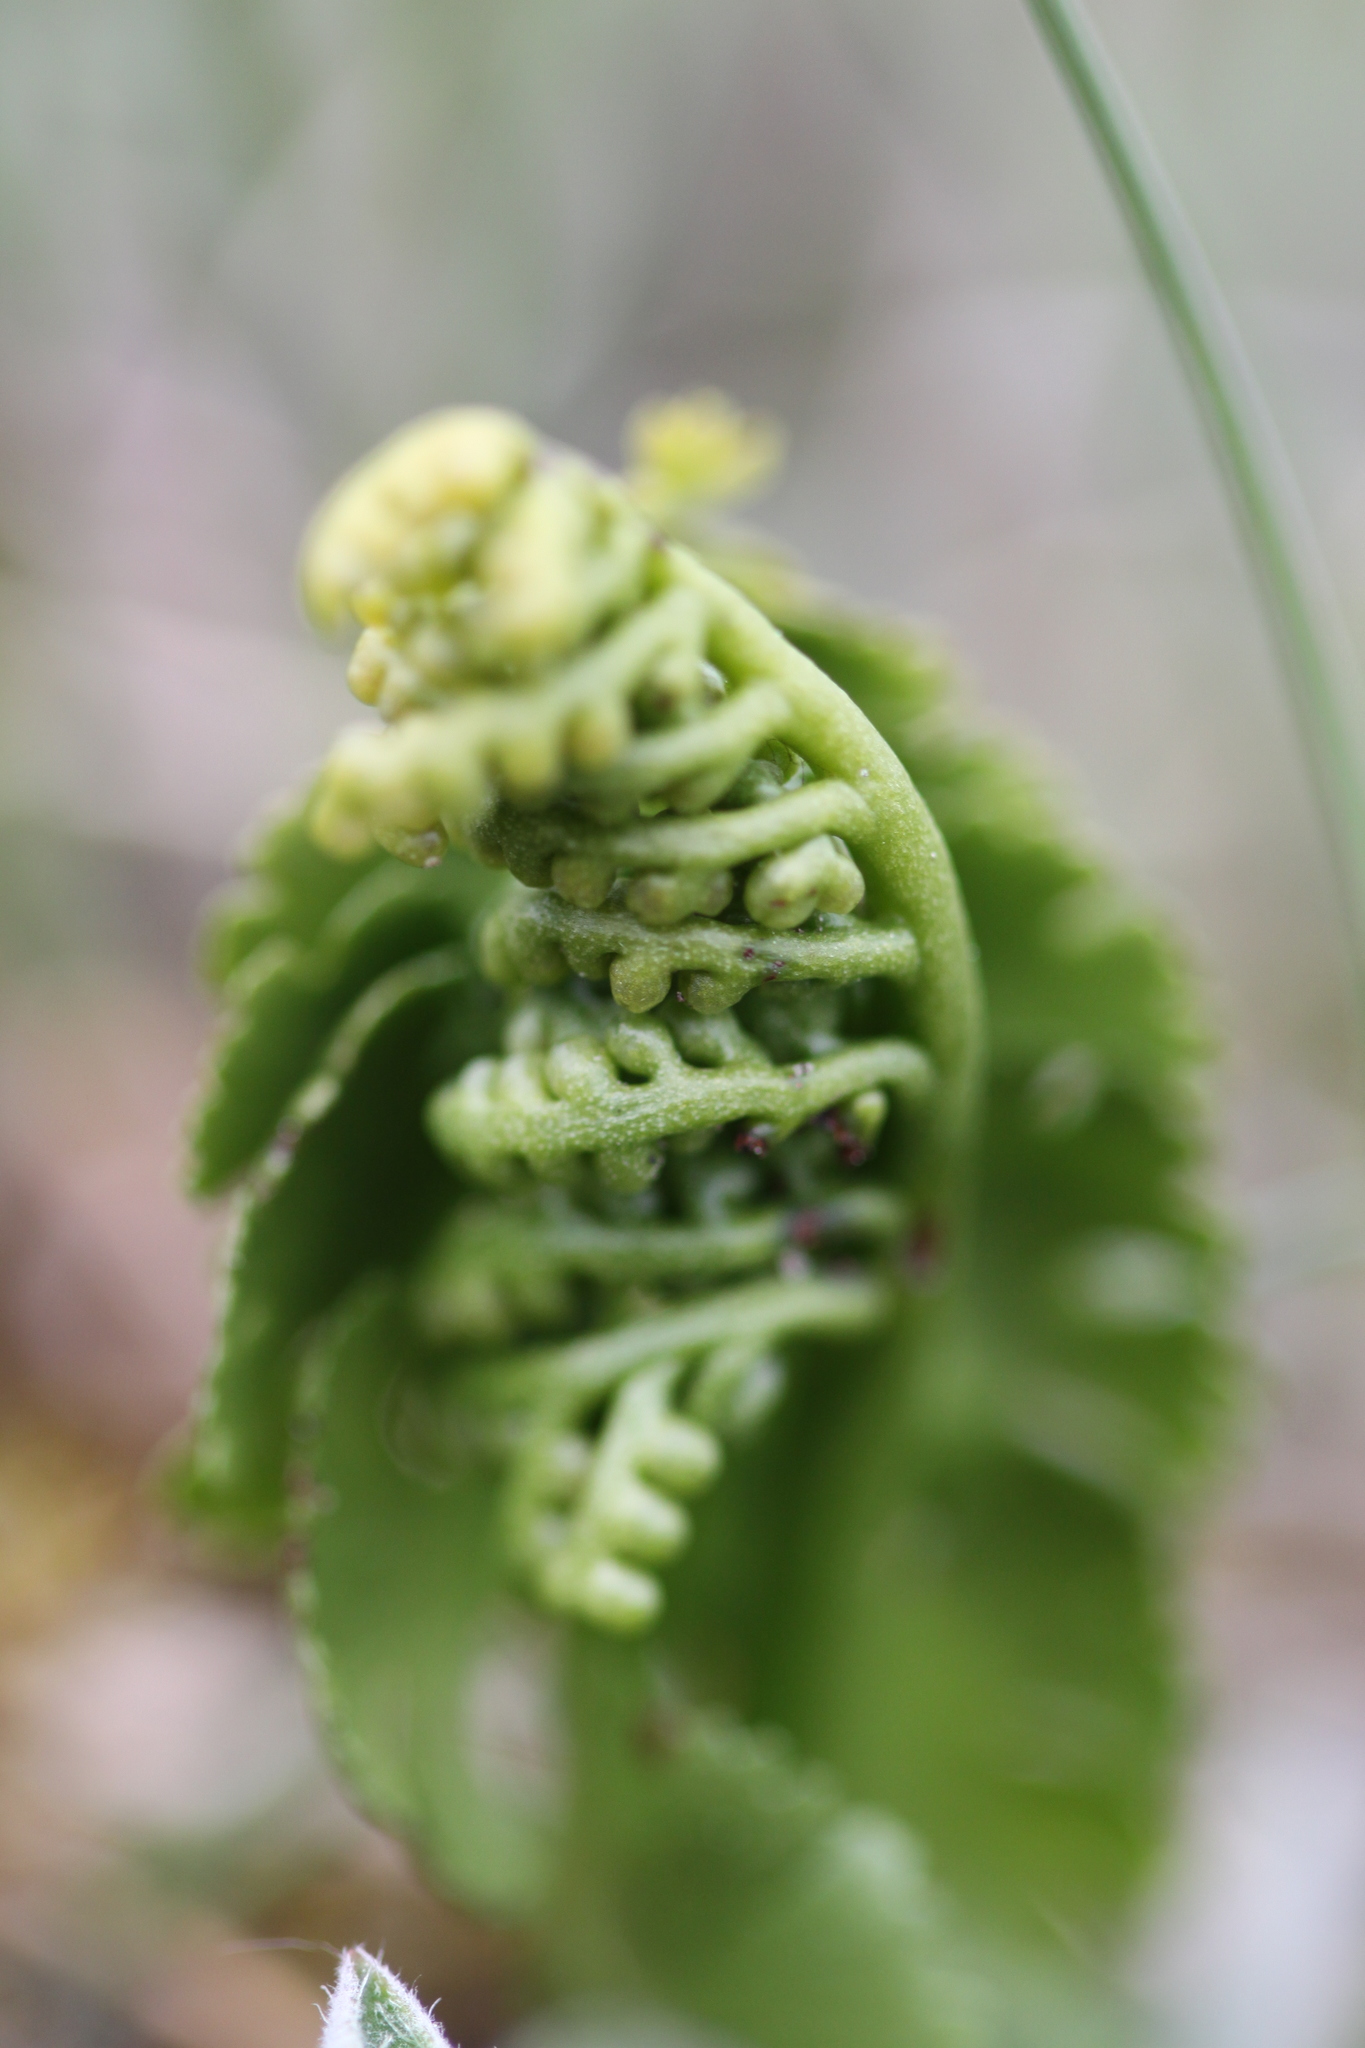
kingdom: Plantae
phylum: Tracheophyta
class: Polypodiopsida
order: Ophioglossales
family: Ophioglossaceae
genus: Botrychium
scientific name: Botrychium lunaria
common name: Moonwort
